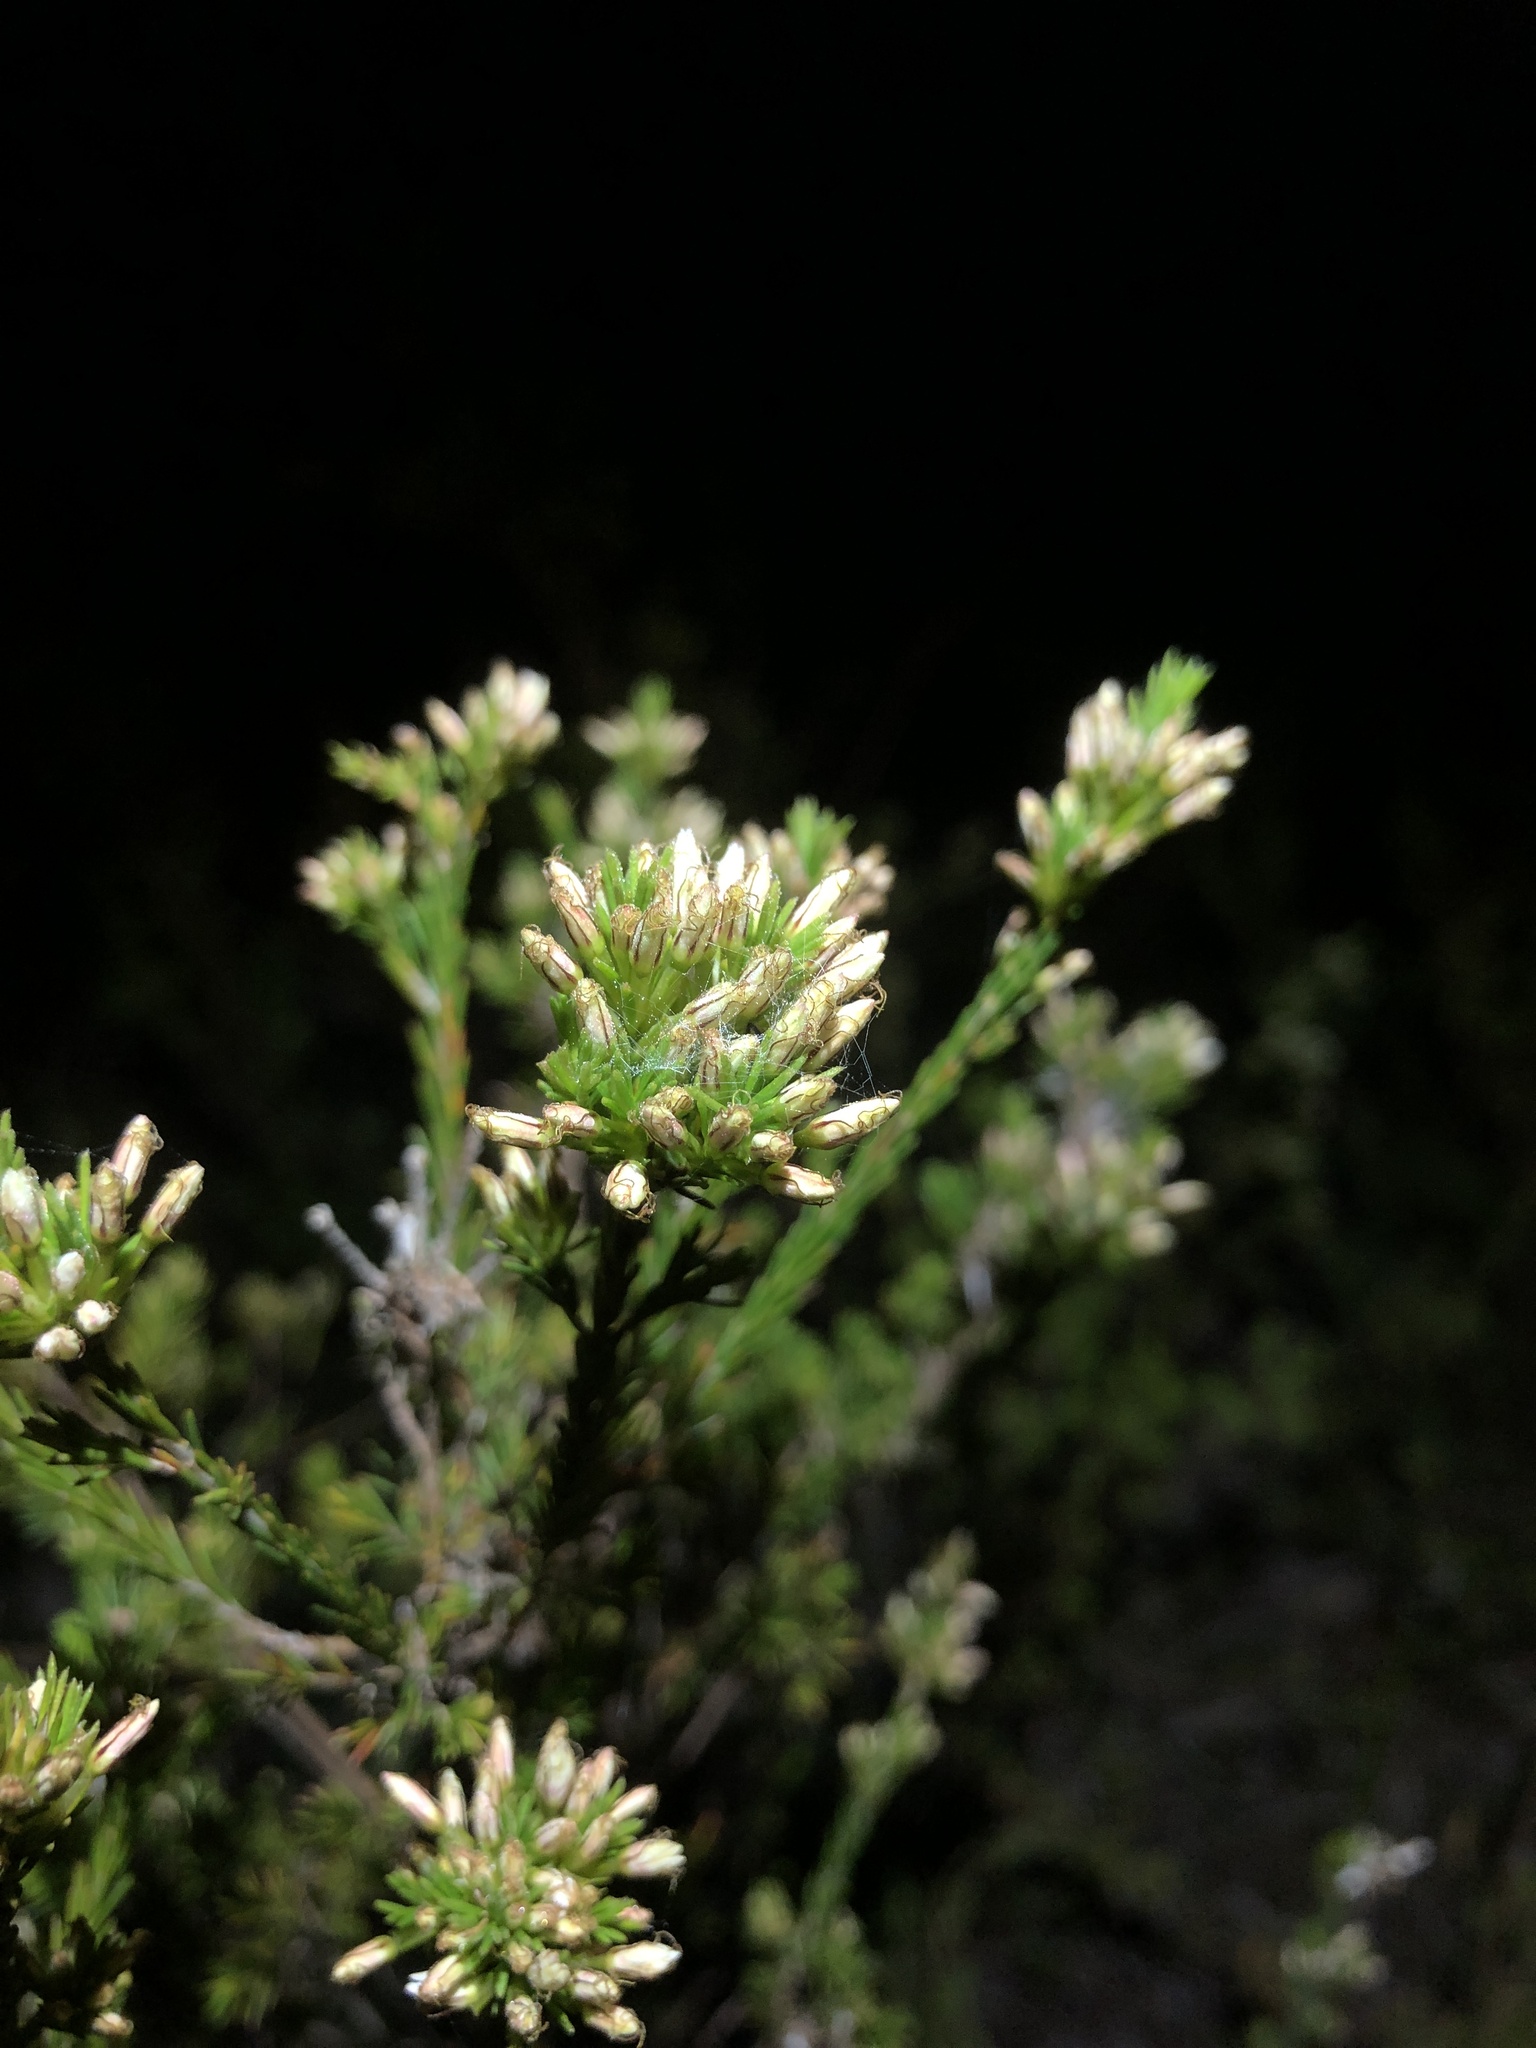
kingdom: Plantae
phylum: Tracheophyta
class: Magnoliopsida
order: Myrtales
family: Myrtaceae
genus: Calytrix
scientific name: Calytrix tetragona
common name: Common fringe myrtle
